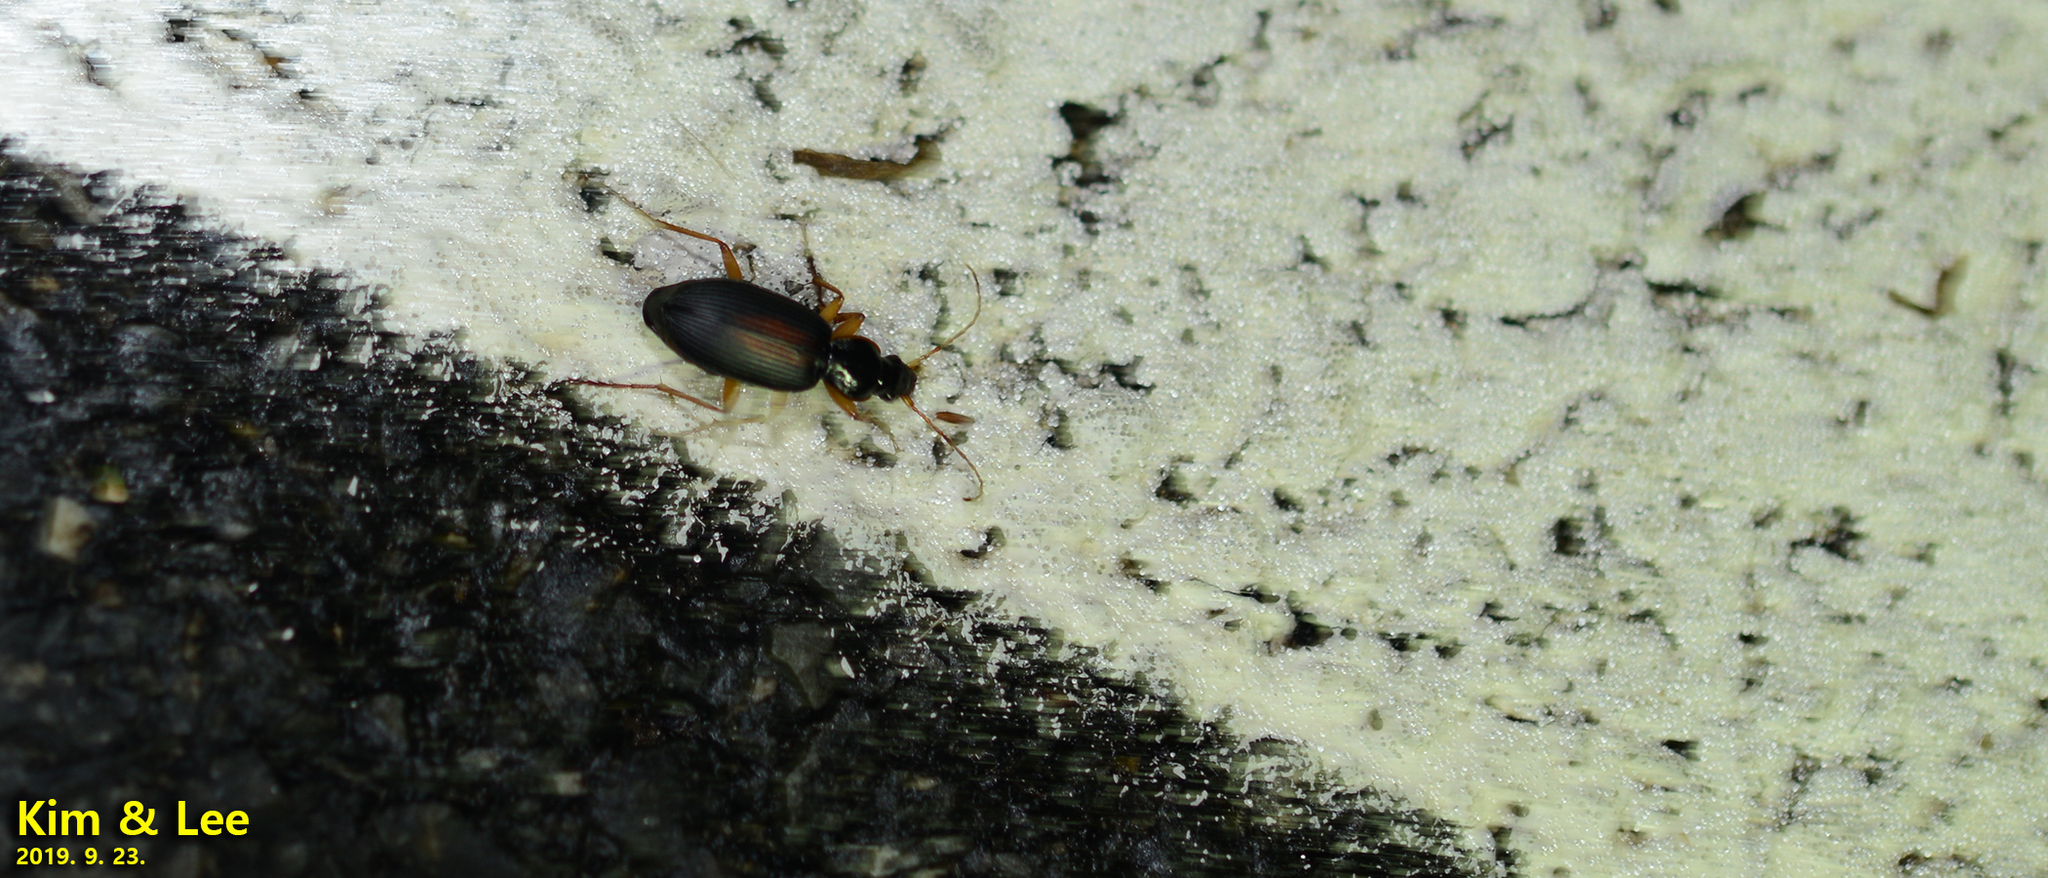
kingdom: Animalia
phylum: Arthropoda
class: Insecta
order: Coleoptera
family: Carabidae
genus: Dolichus
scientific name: Dolichus halensis
